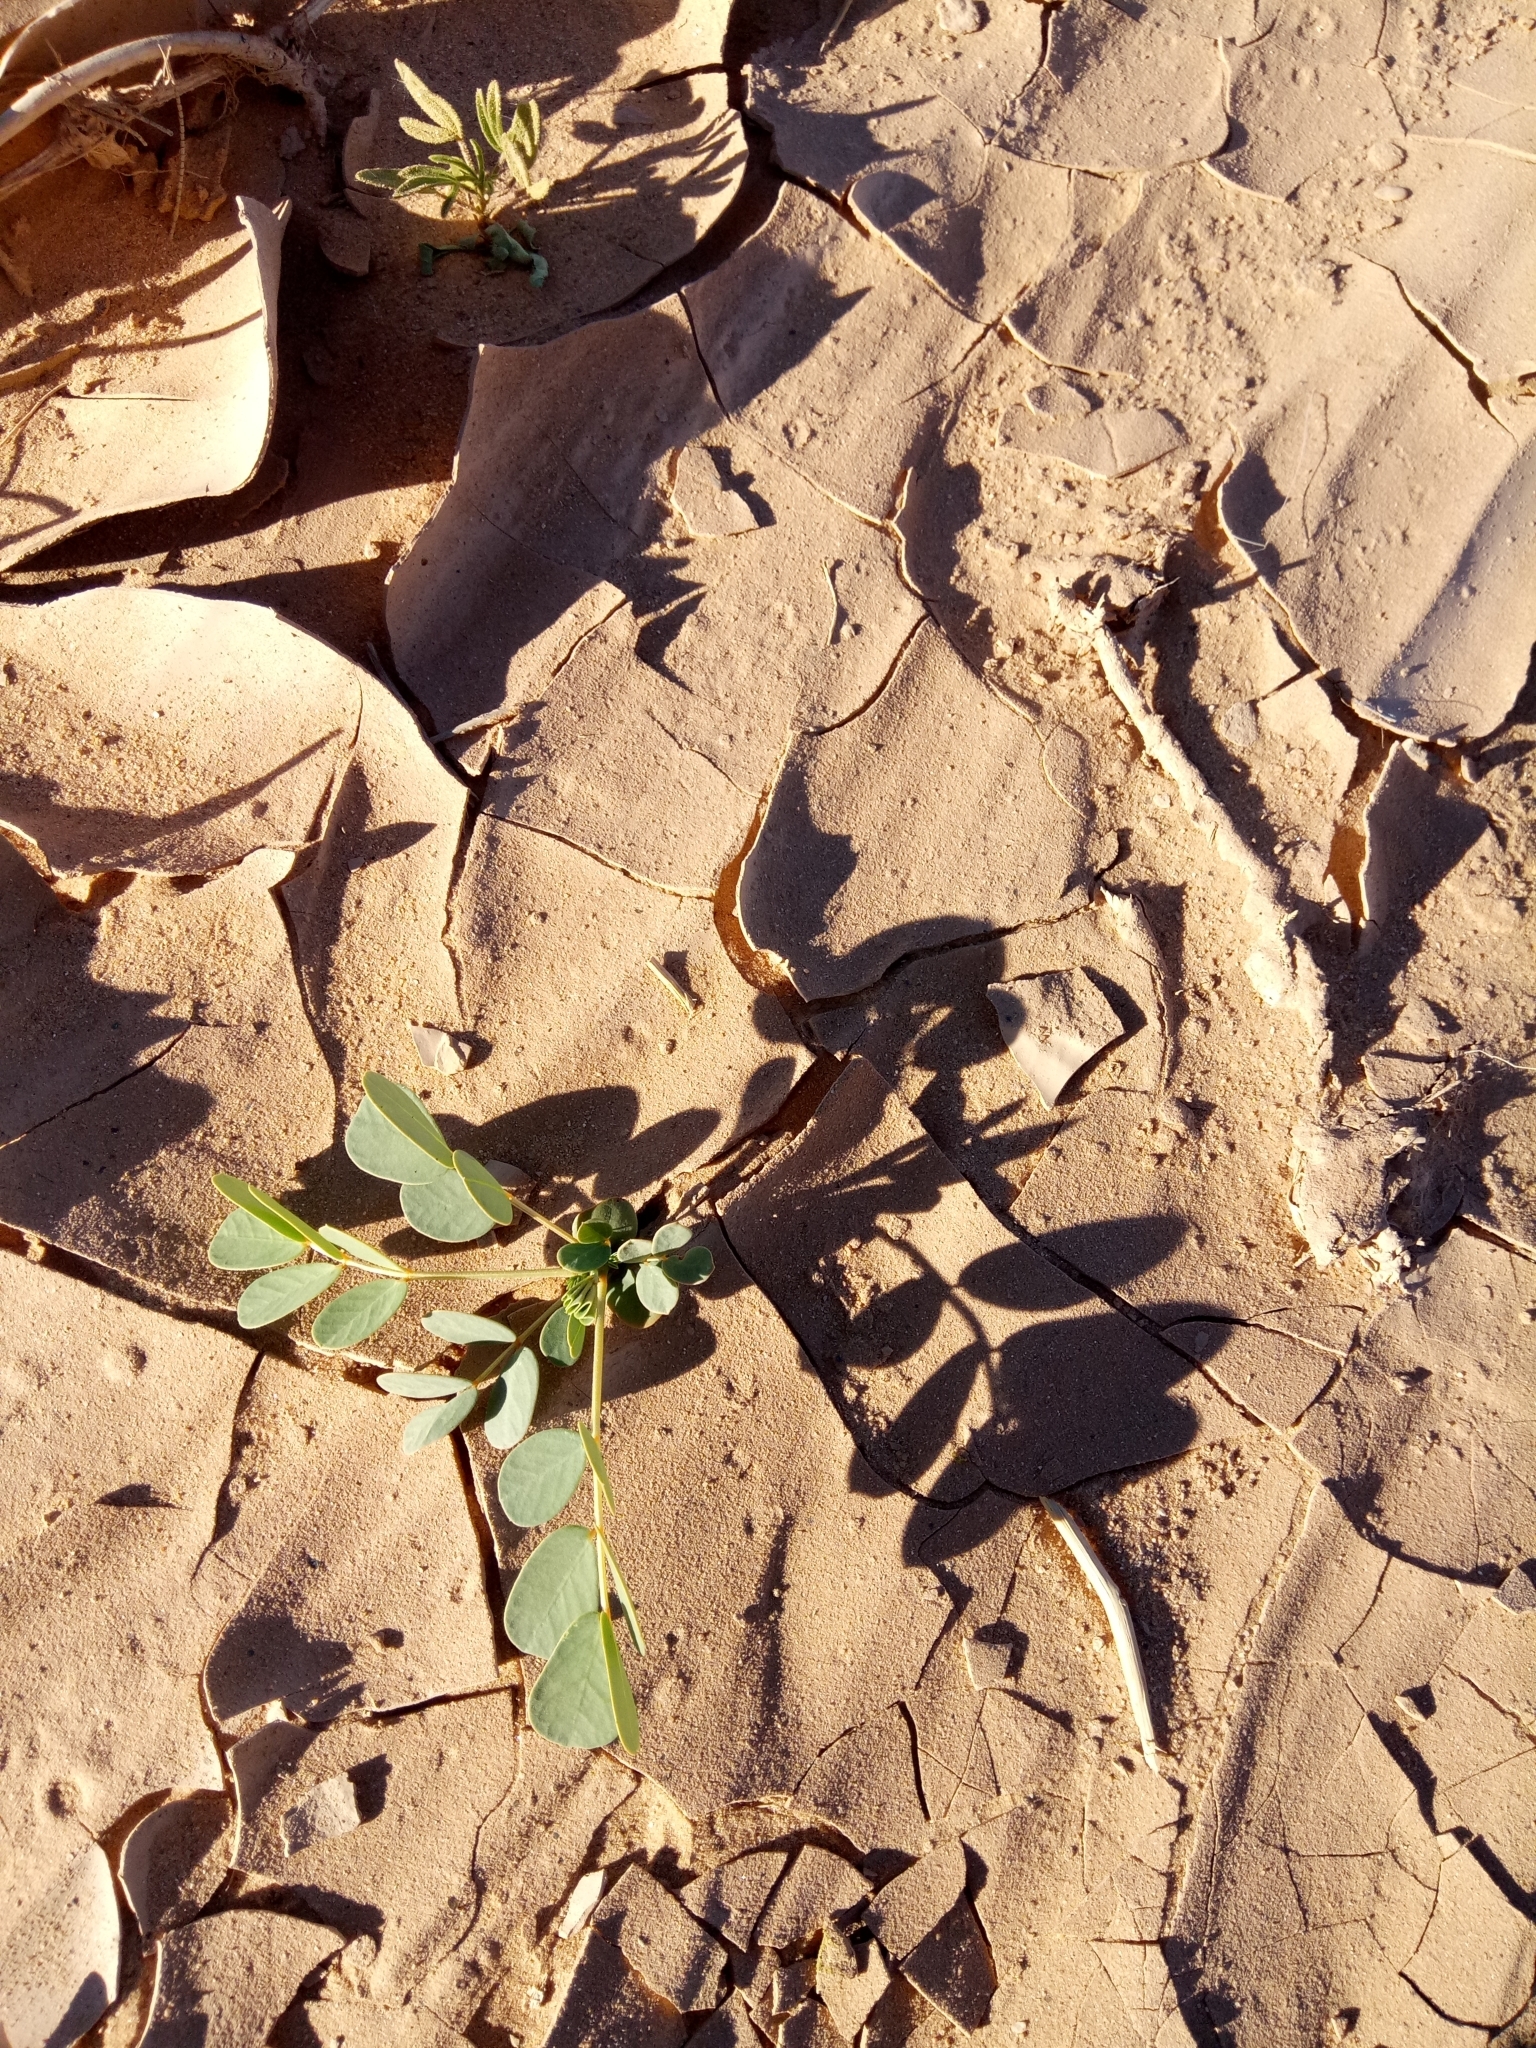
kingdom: Plantae
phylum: Tracheophyta
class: Magnoliopsida
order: Fabales
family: Fabaceae
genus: Senna
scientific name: Senna italica
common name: Port royal senna
